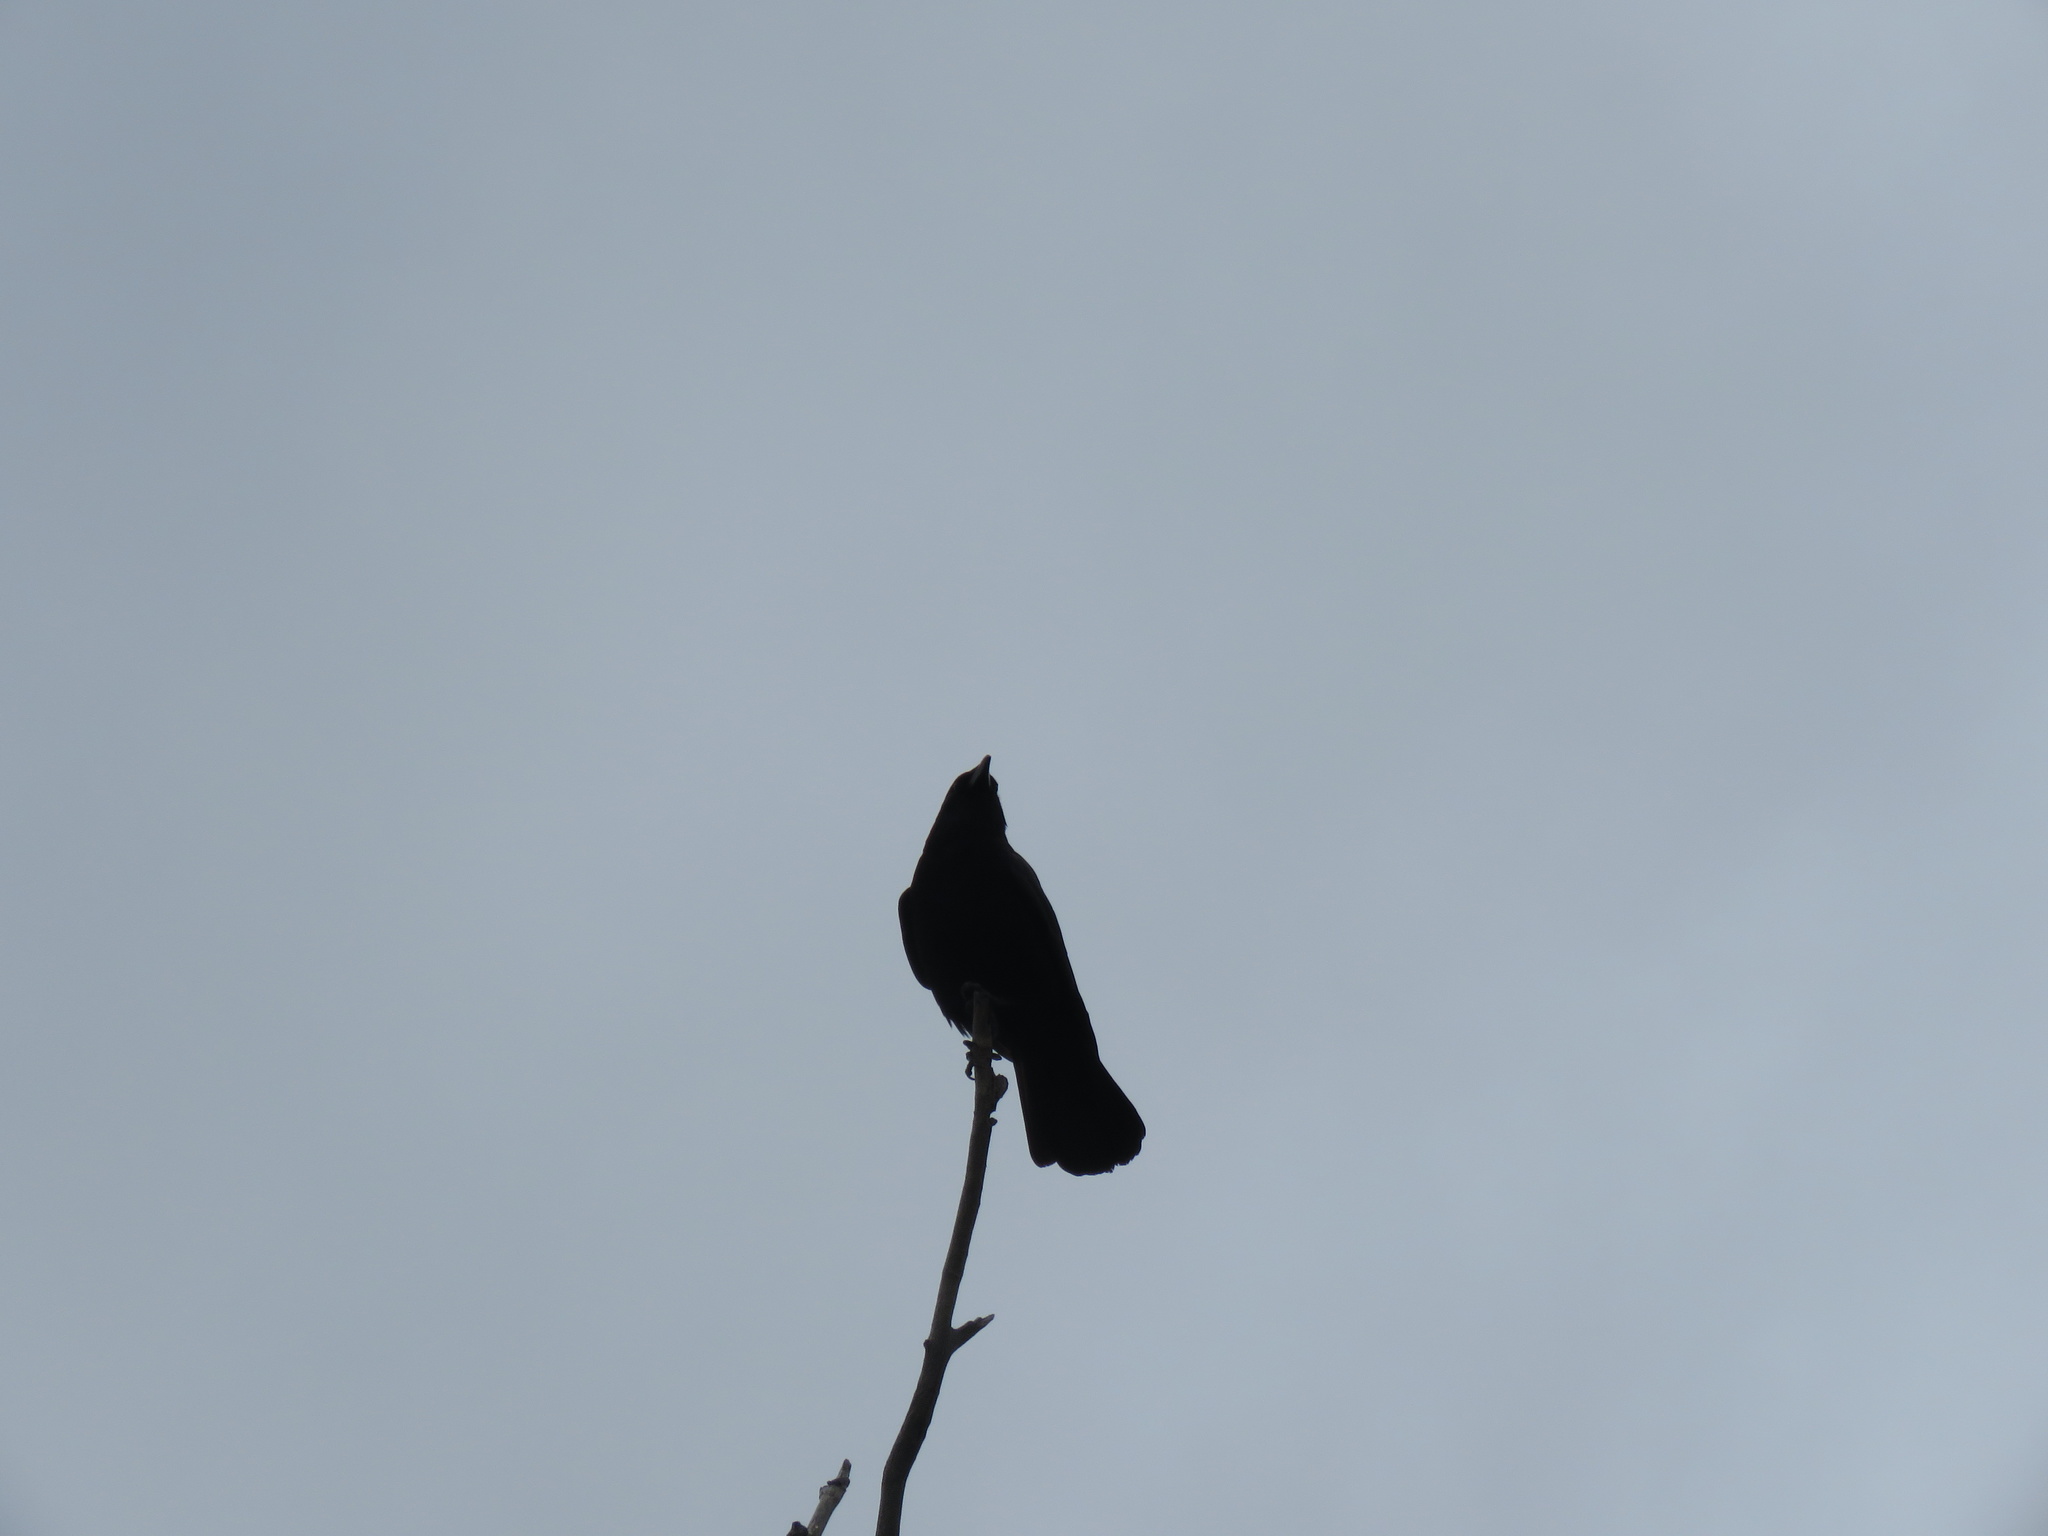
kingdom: Animalia
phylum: Chordata
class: Aves
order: Passeriformes
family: Corvidae
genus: Corvus
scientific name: Corvus brachyrhynchos
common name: American crow
